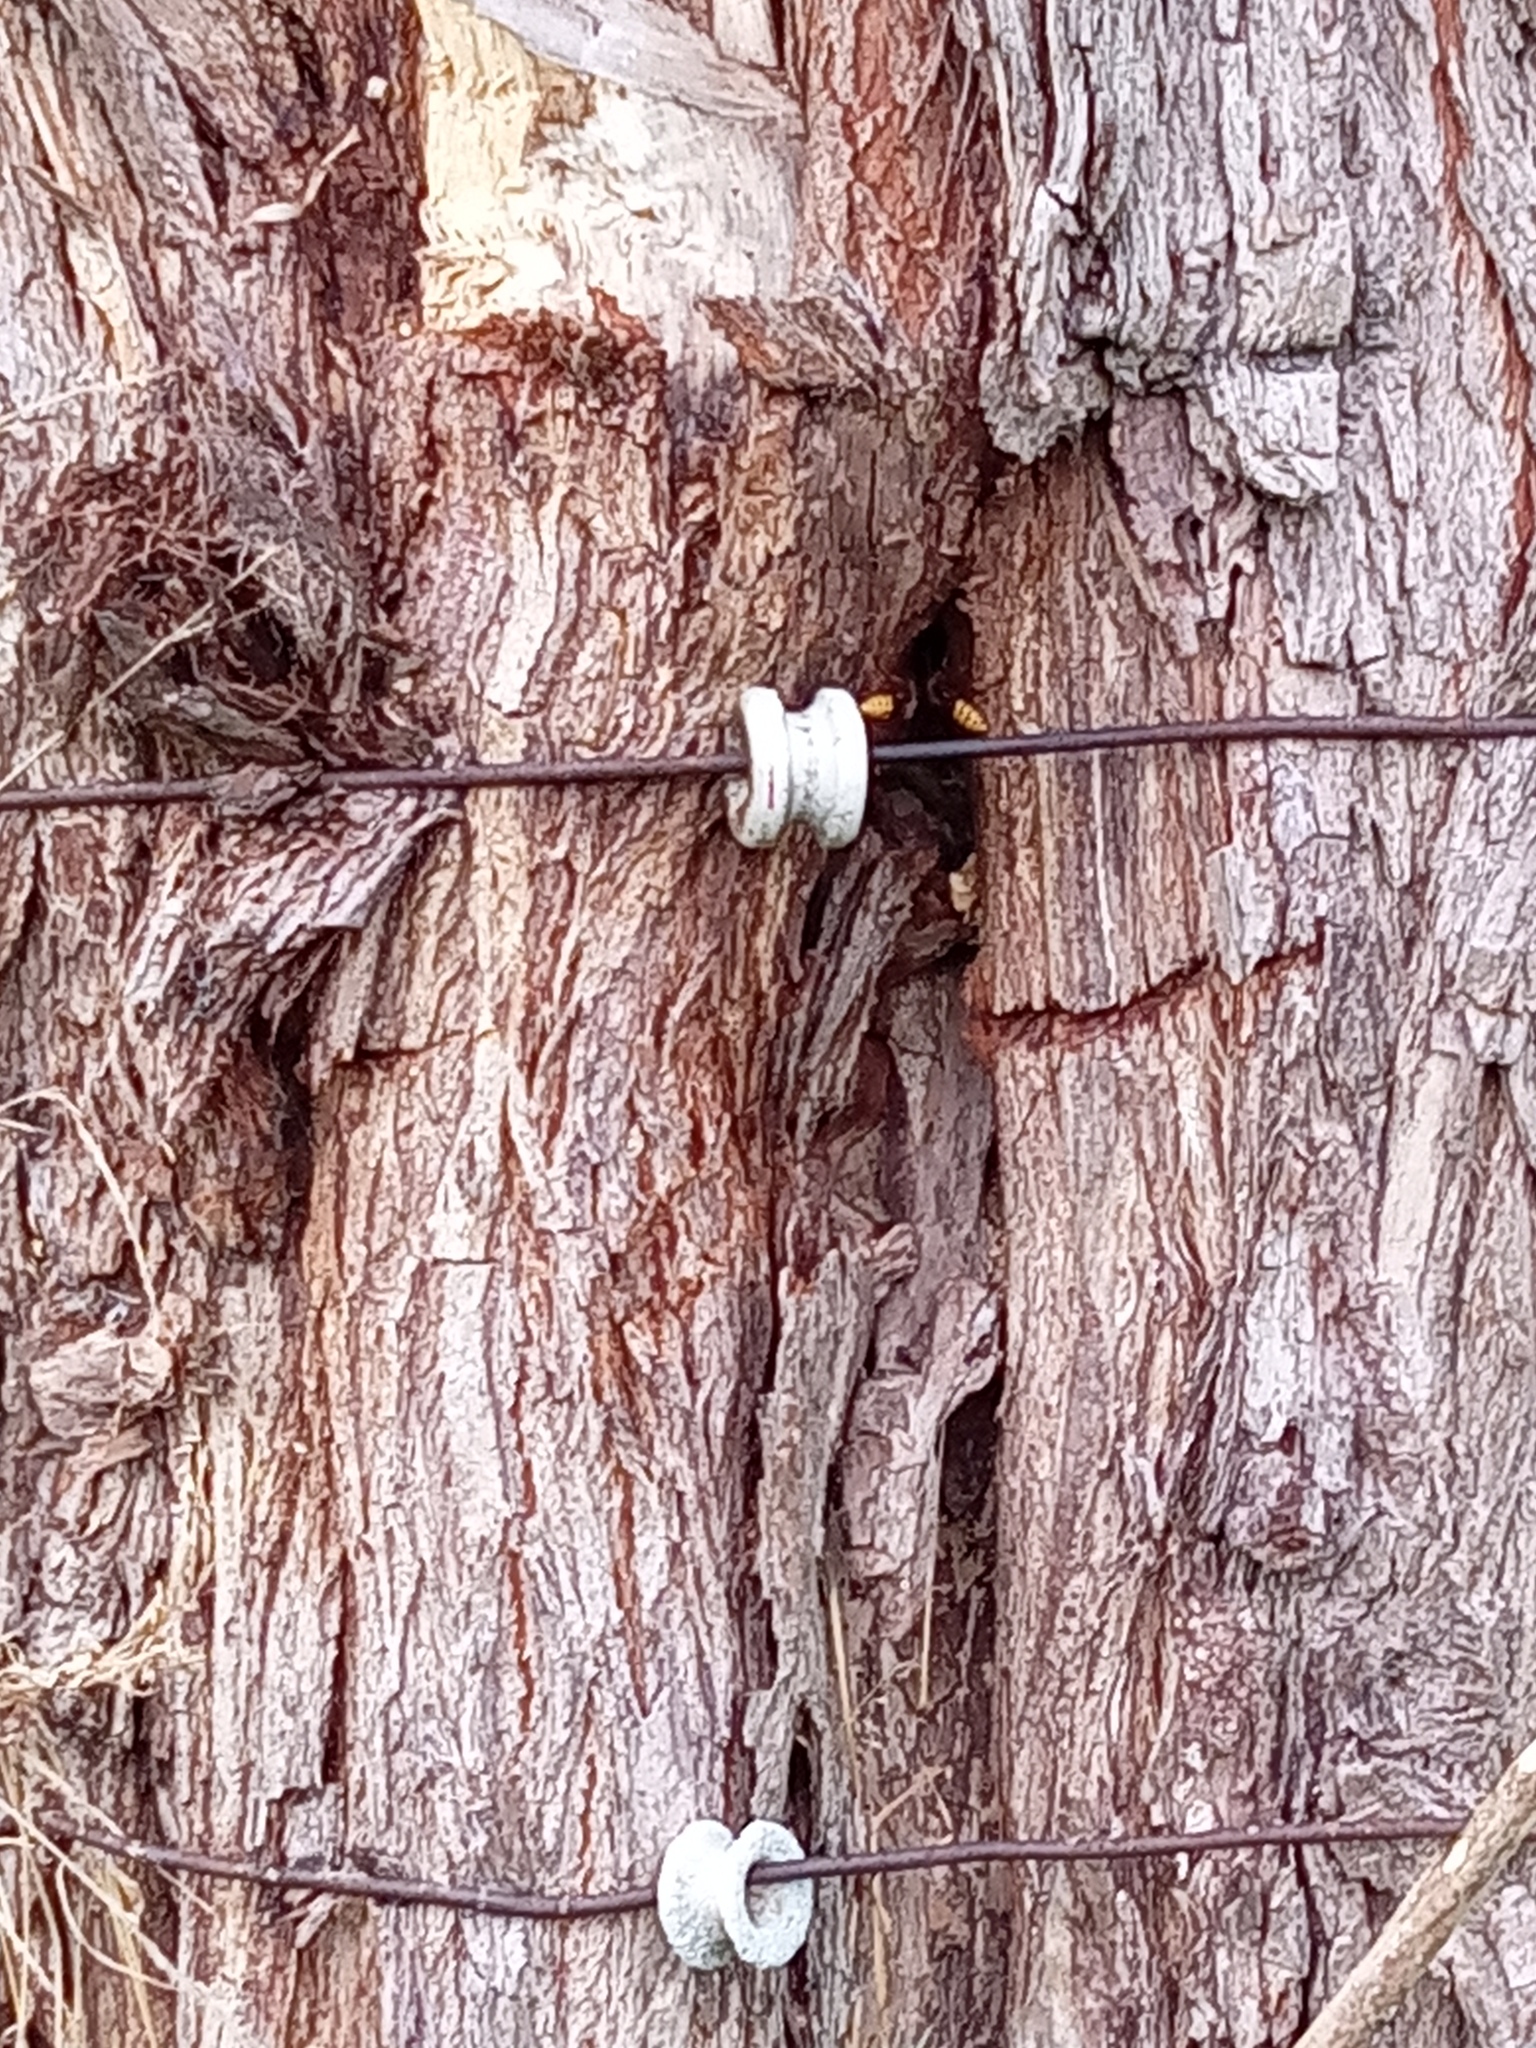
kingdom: Animalia
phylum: Arthropoda
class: Insecta
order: Hymenoptera
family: Vespidae
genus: Vespa
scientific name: Vespa crabro
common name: Hornet
